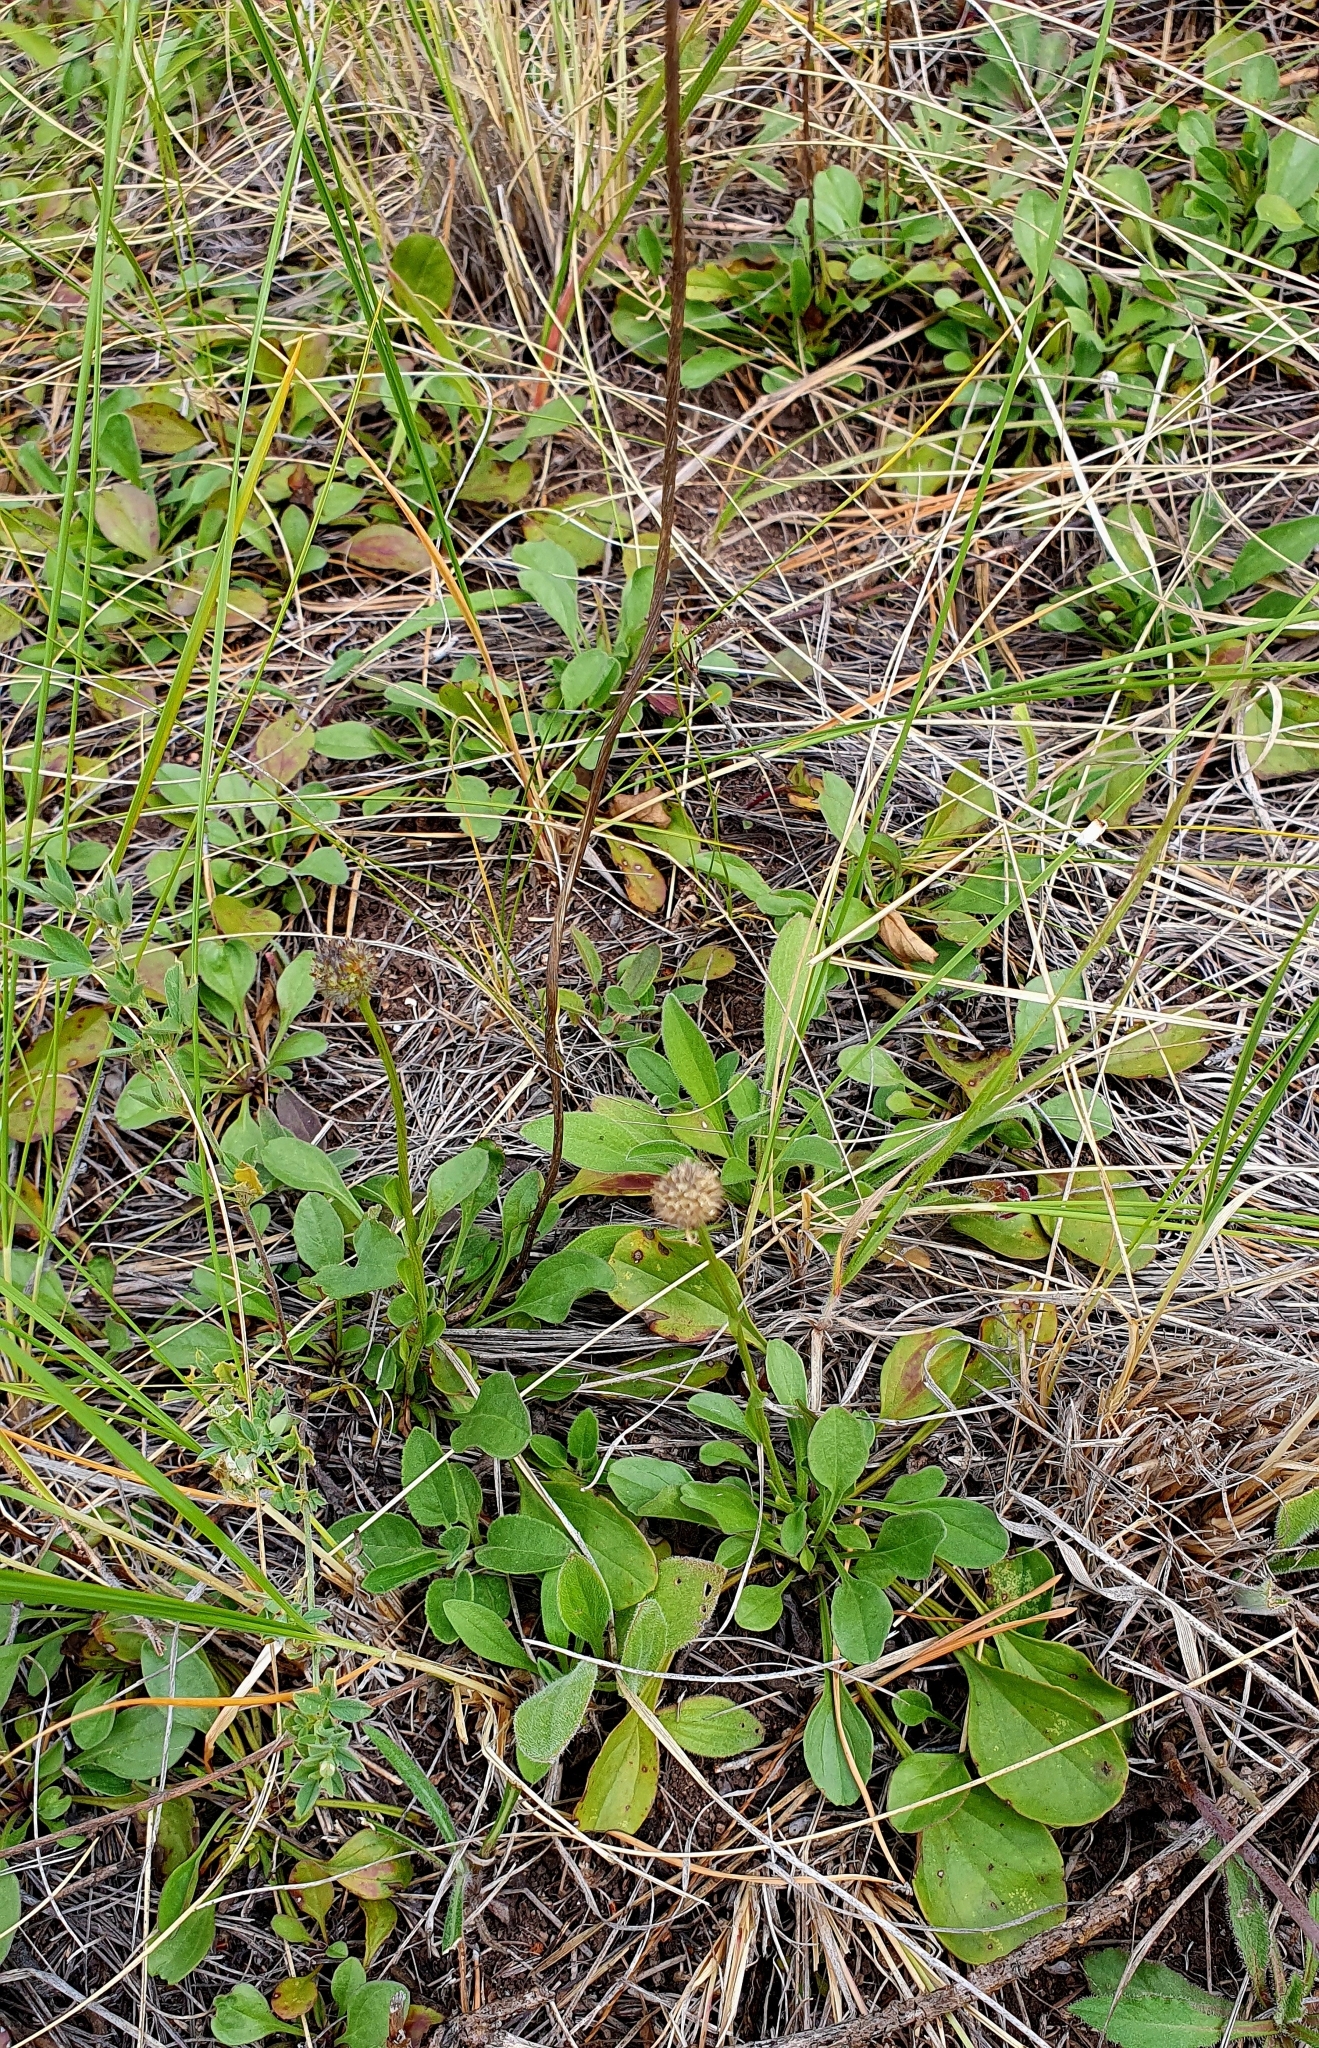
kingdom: Plantae
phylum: Tracheophyta
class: Magnoliopsida
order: Lamiales
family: Plantaginaceae
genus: Globularia
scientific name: Globularia bisnagarica
